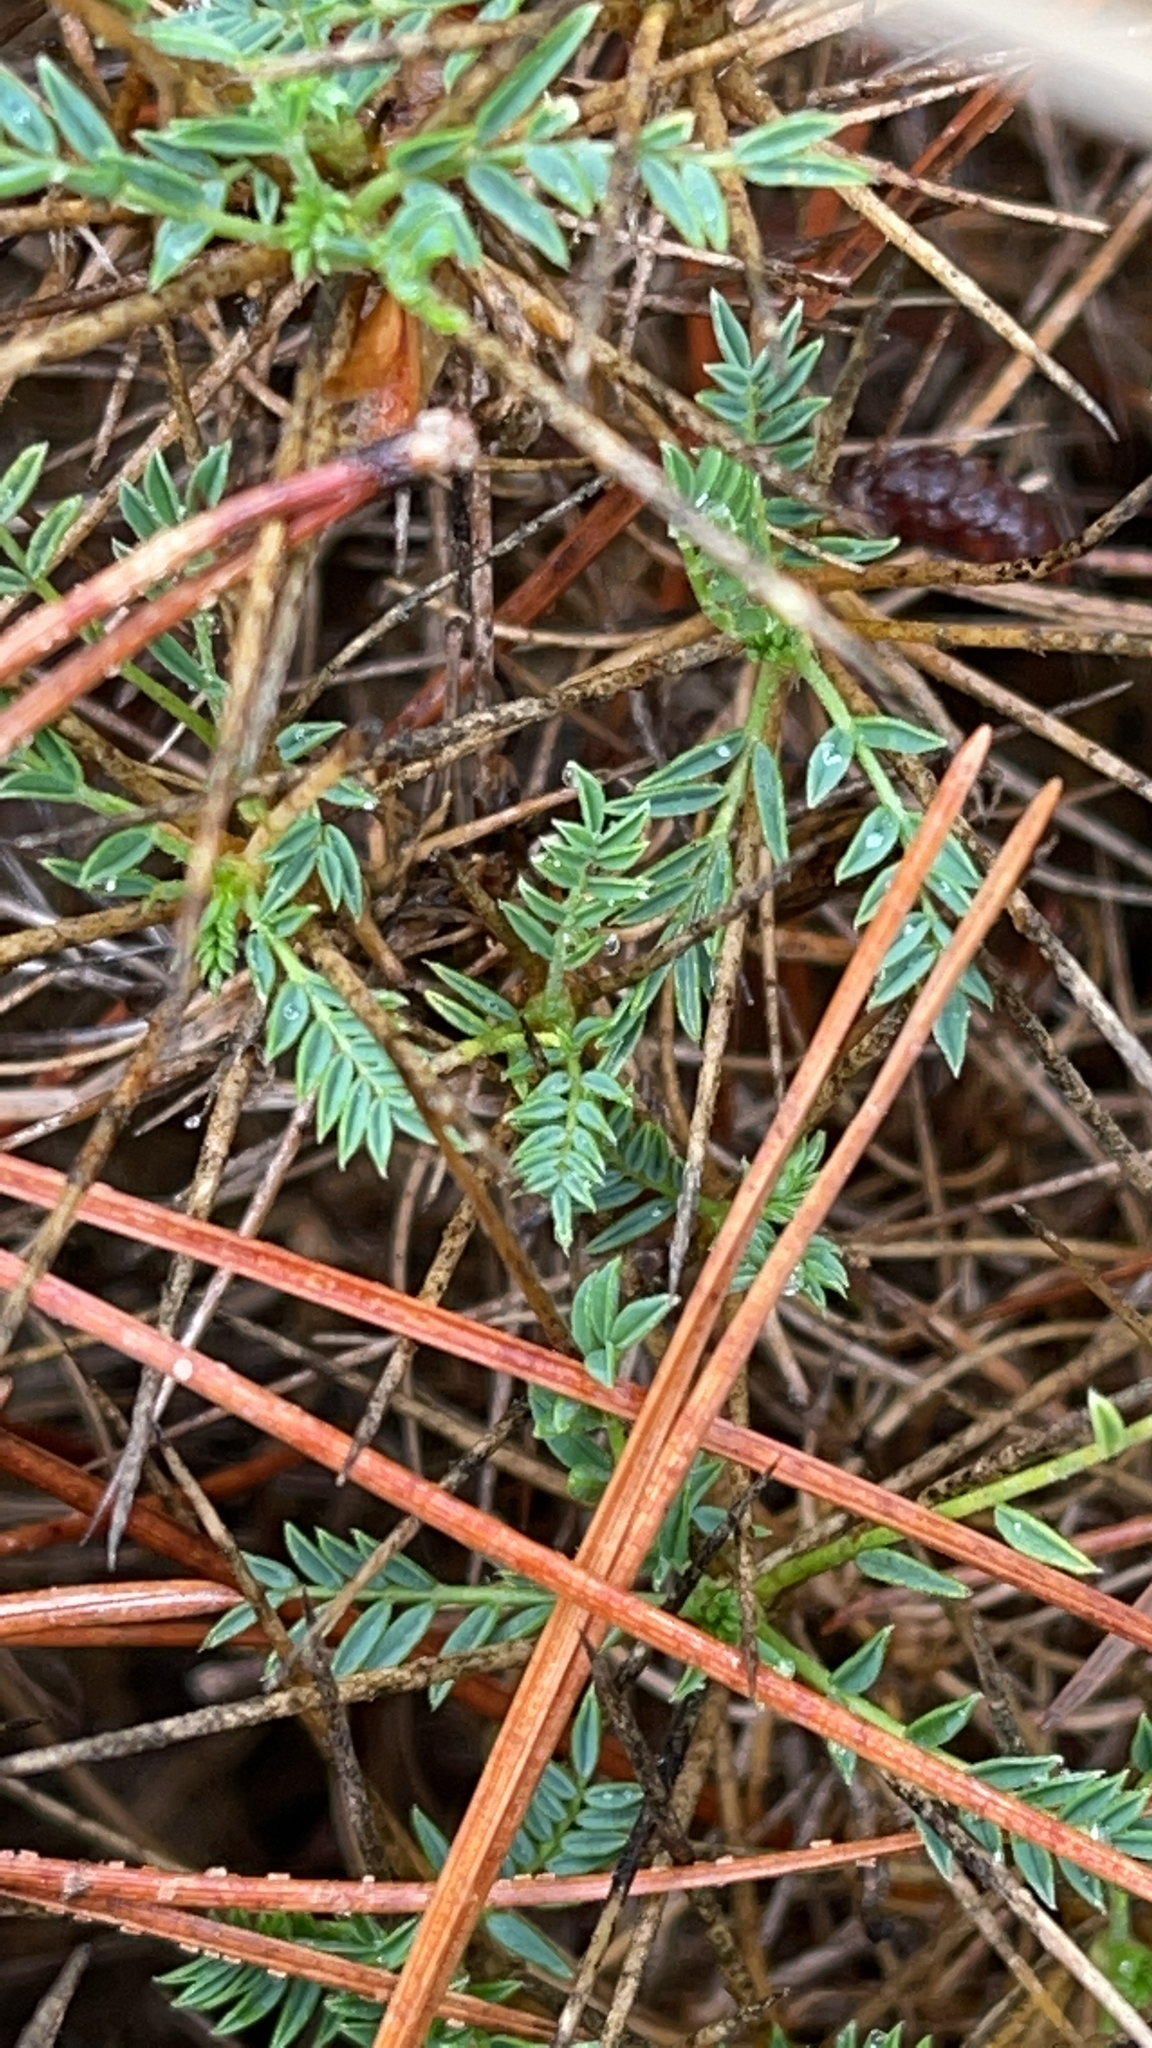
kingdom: Plantae
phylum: Tracheophyta
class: Magnoliopsida
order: Fabales
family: Fabaceae
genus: Astragalus
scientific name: Astragalus balearicus
